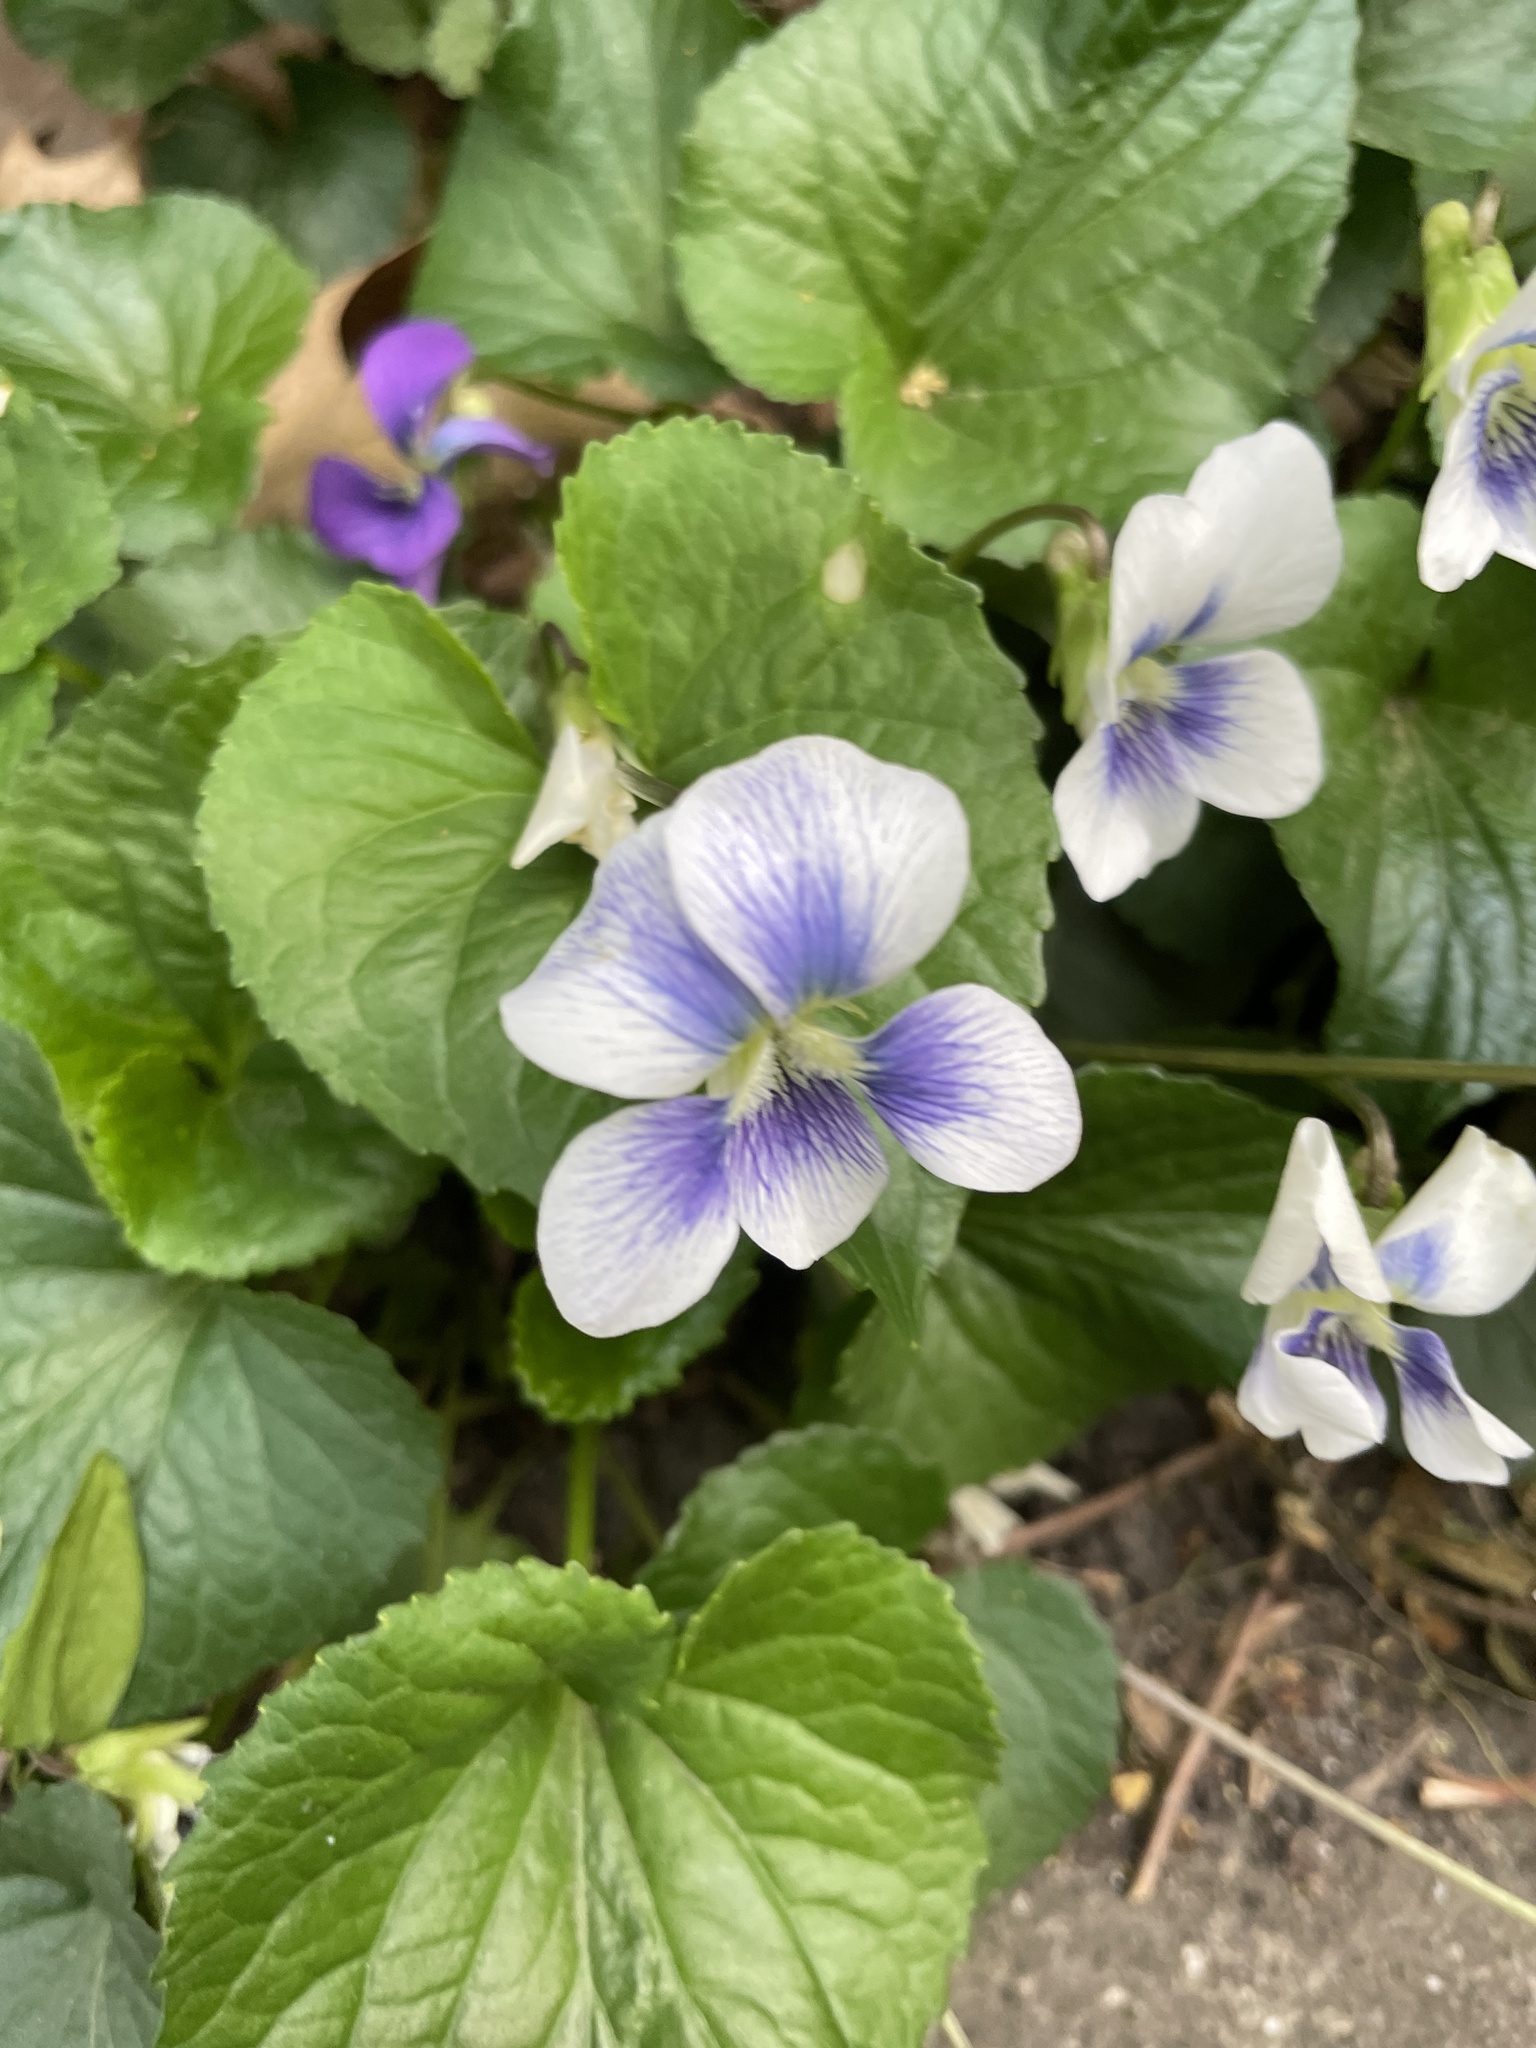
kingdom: Plantae
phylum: Tracheophyta
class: Magnoliopsida
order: Malpighiales
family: Violaceae
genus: Viola
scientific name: Viola sororia
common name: Dooryard violet
